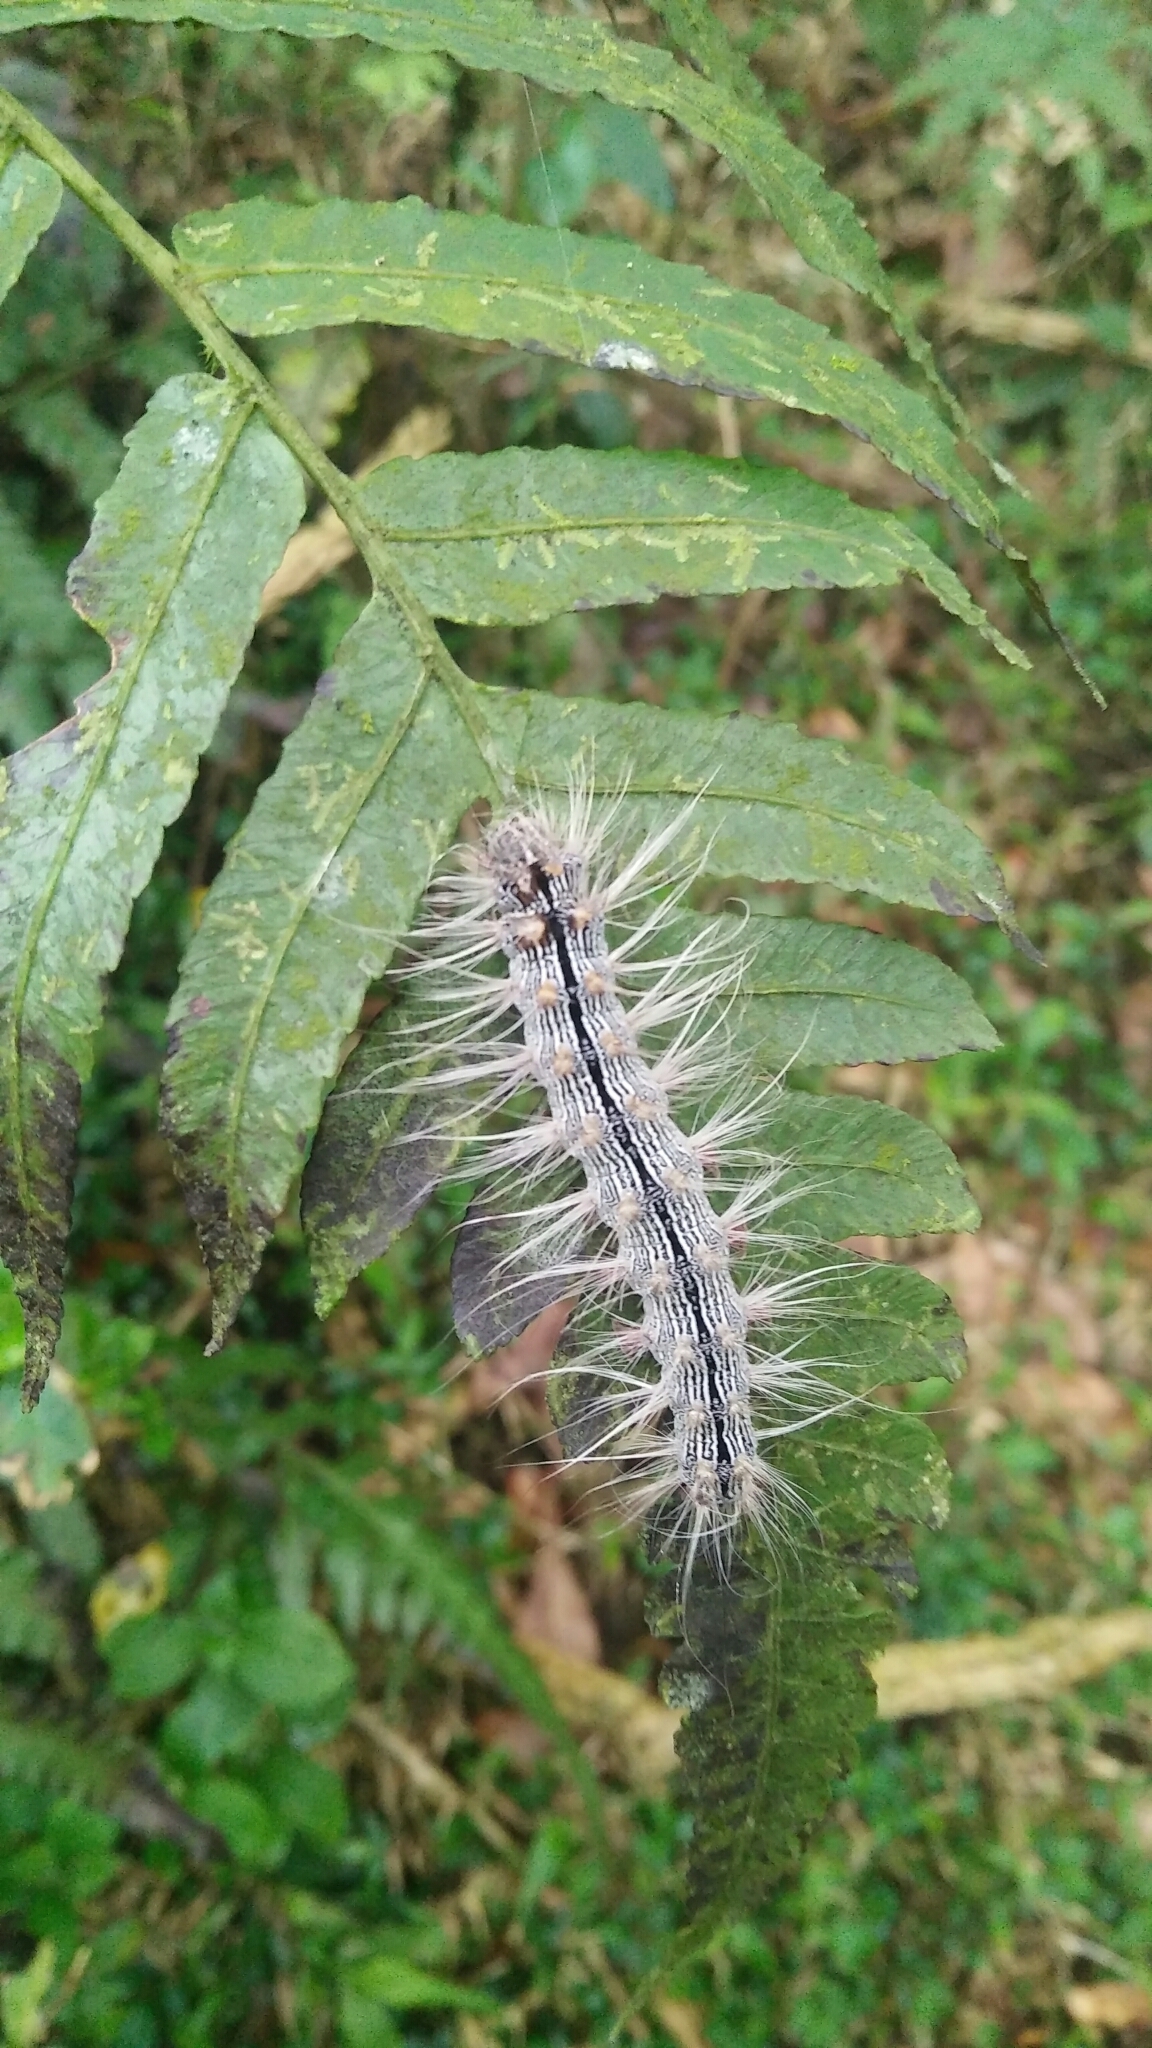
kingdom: Animalia
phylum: Arthropoda
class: Insecta
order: Lepidoptera
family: Erebidae
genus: Chrysaeglia
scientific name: Chrysaeglia magnifica
